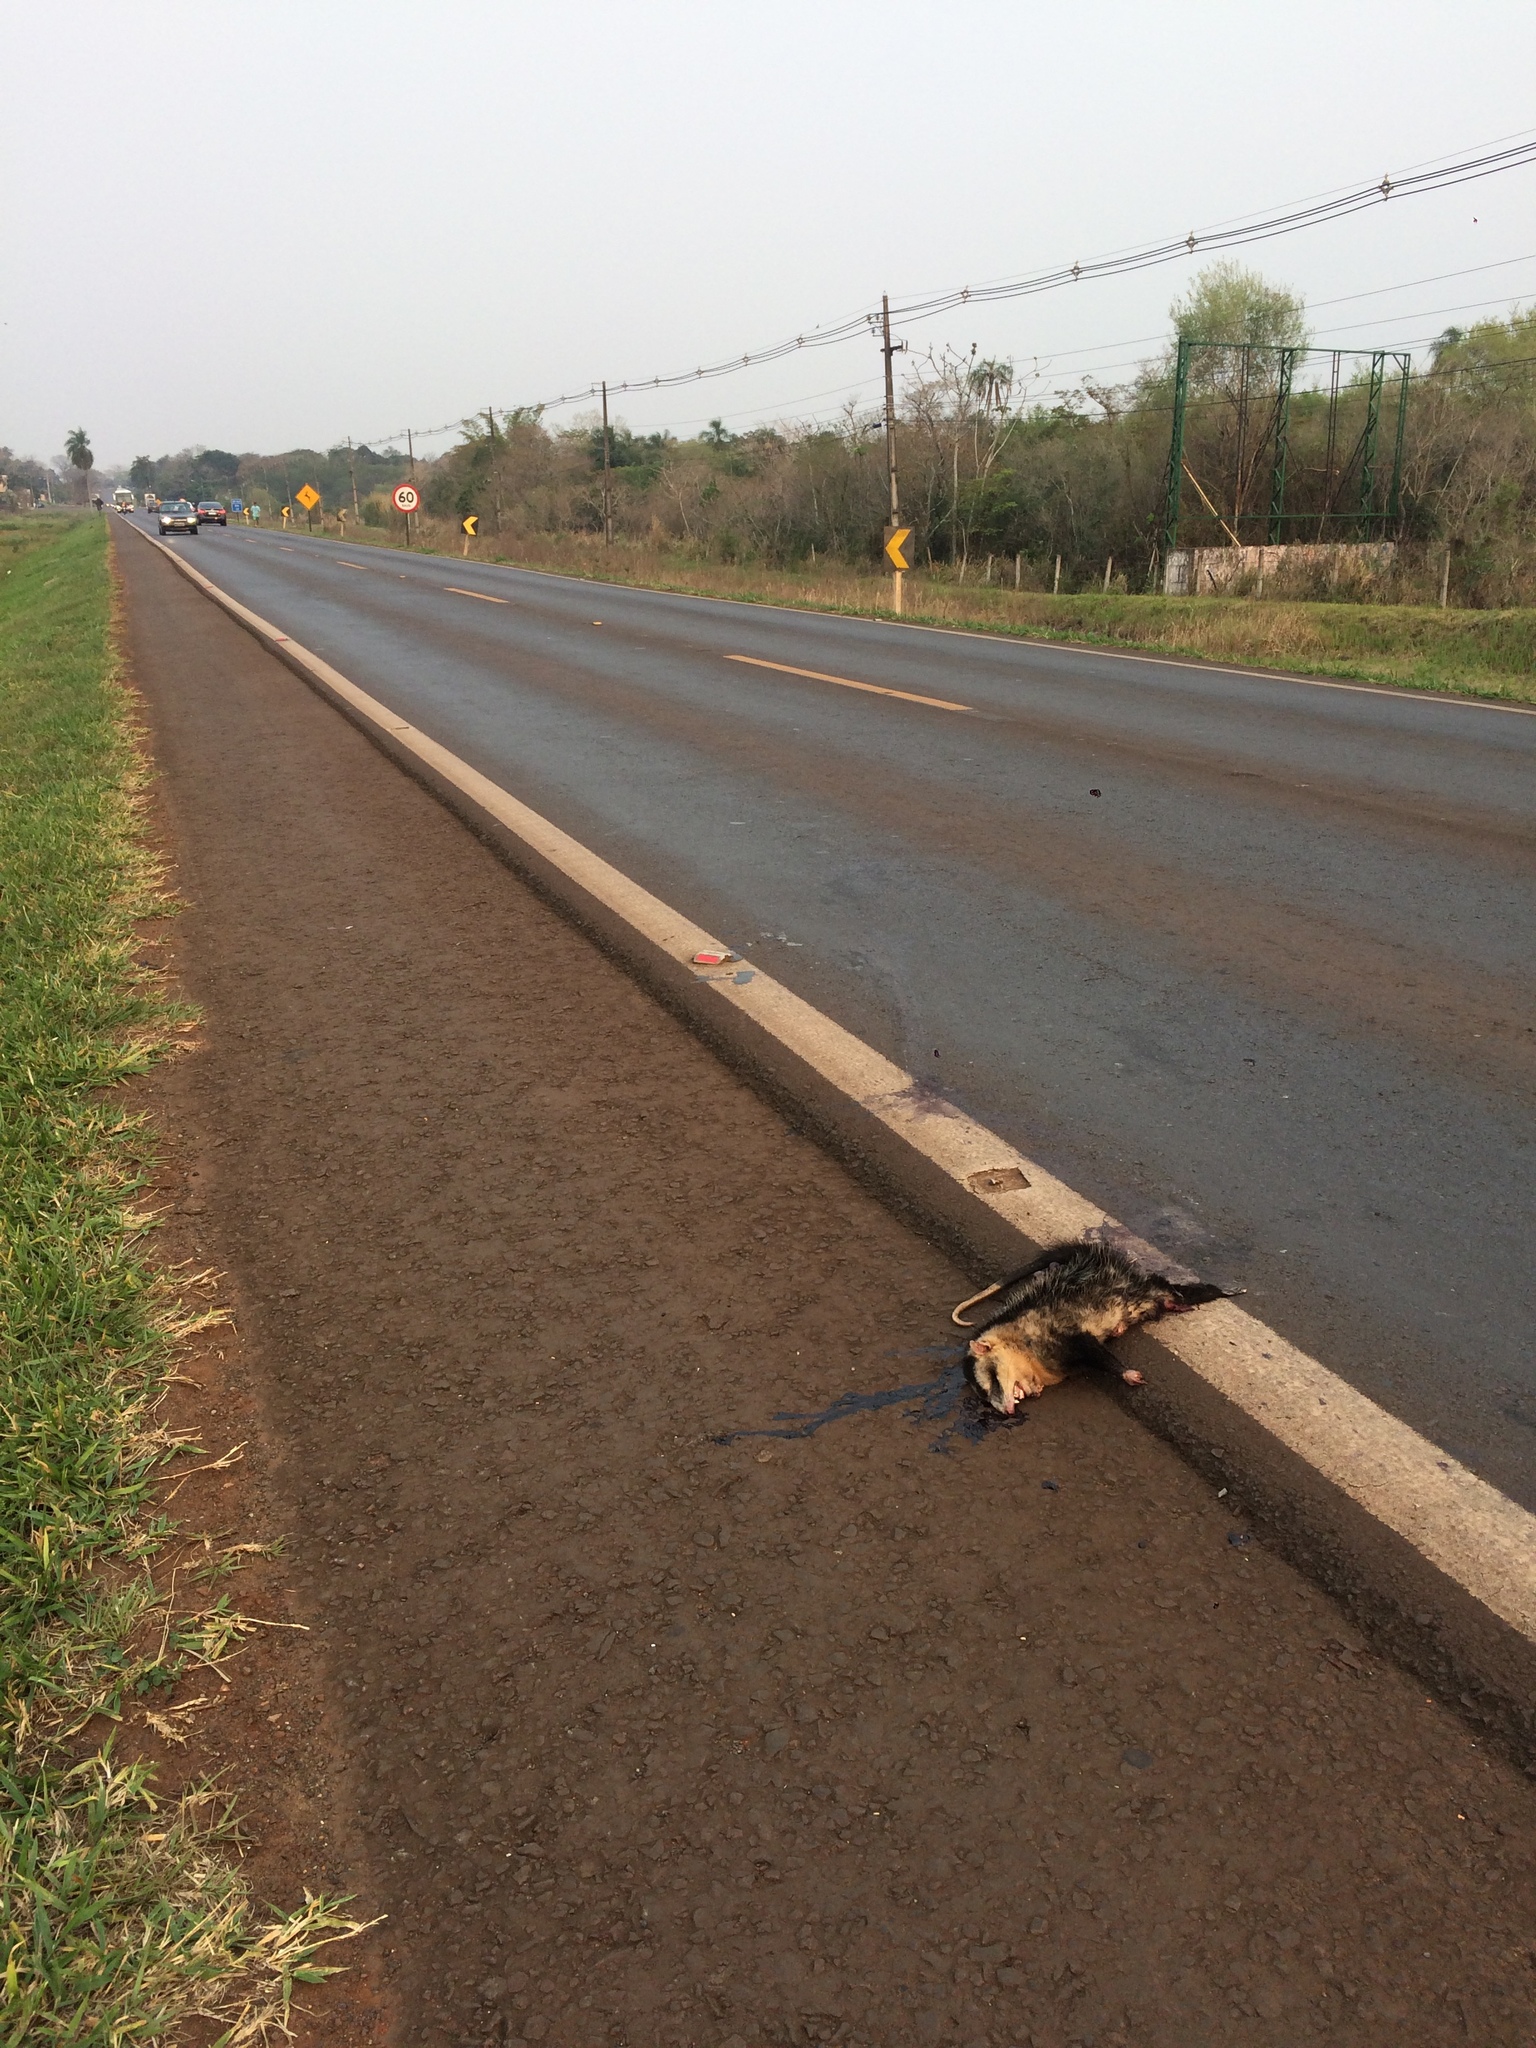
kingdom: Animalia
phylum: Chordata
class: Mammalia
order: Didelphimorphia
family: Didelphidae
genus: Didelphis
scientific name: Didelphis albiventris
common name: White-eared opossum
